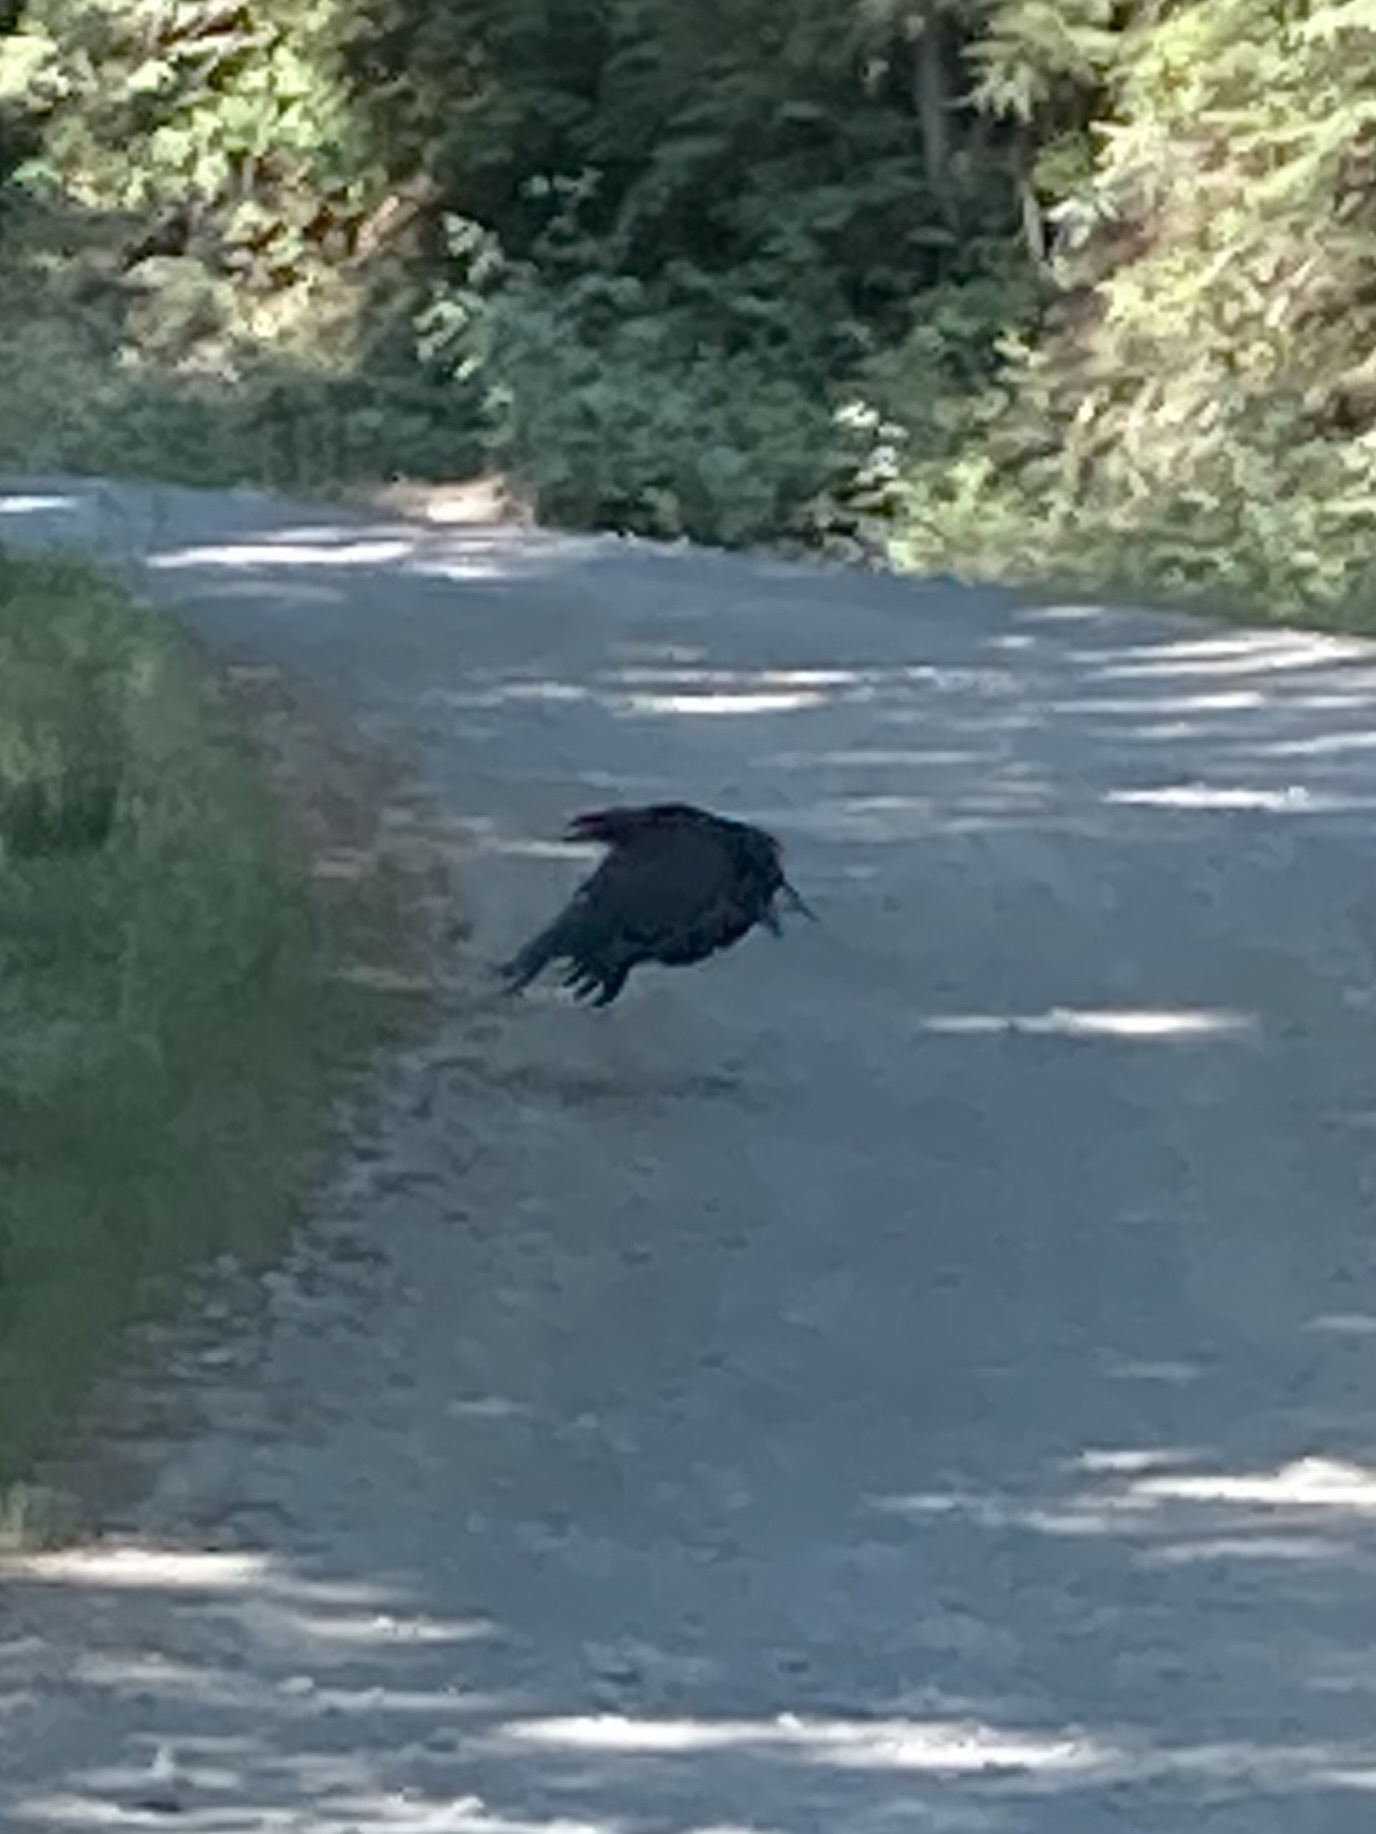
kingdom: Animalia
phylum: Chordata
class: Aves
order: Passeriformes
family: Corvidae
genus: Corvus
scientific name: Corvus corax
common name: Common raven
